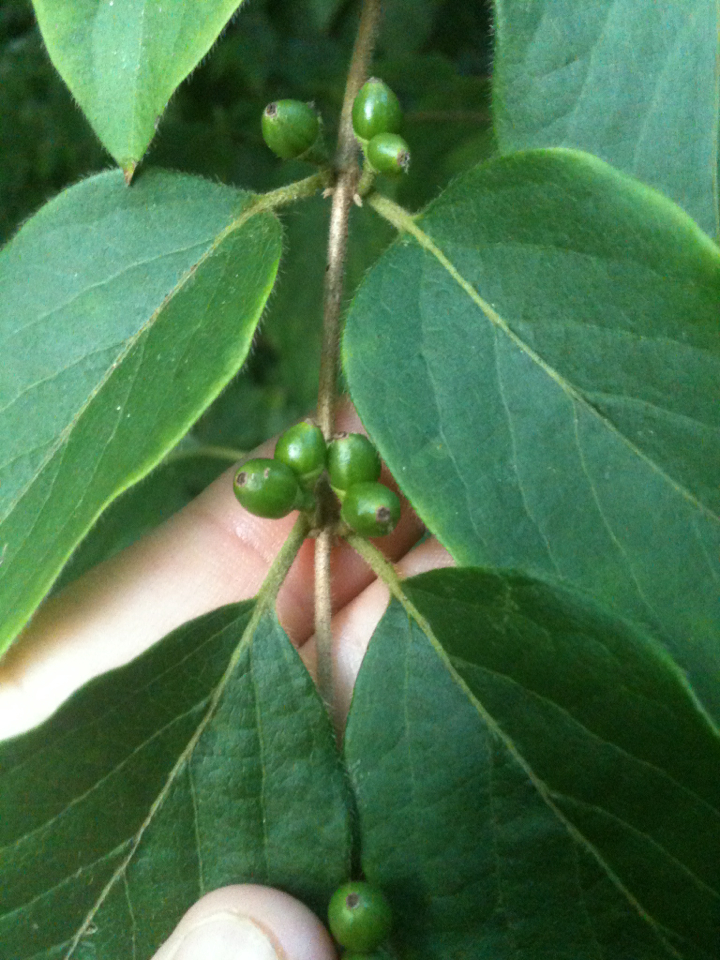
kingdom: Plantae
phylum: Tracheophyta
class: Magnoliopsida
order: Dipsacales
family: Caprifoliaceae
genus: Lonicera
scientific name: Lonicera maackii
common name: Amur honeysuckle
